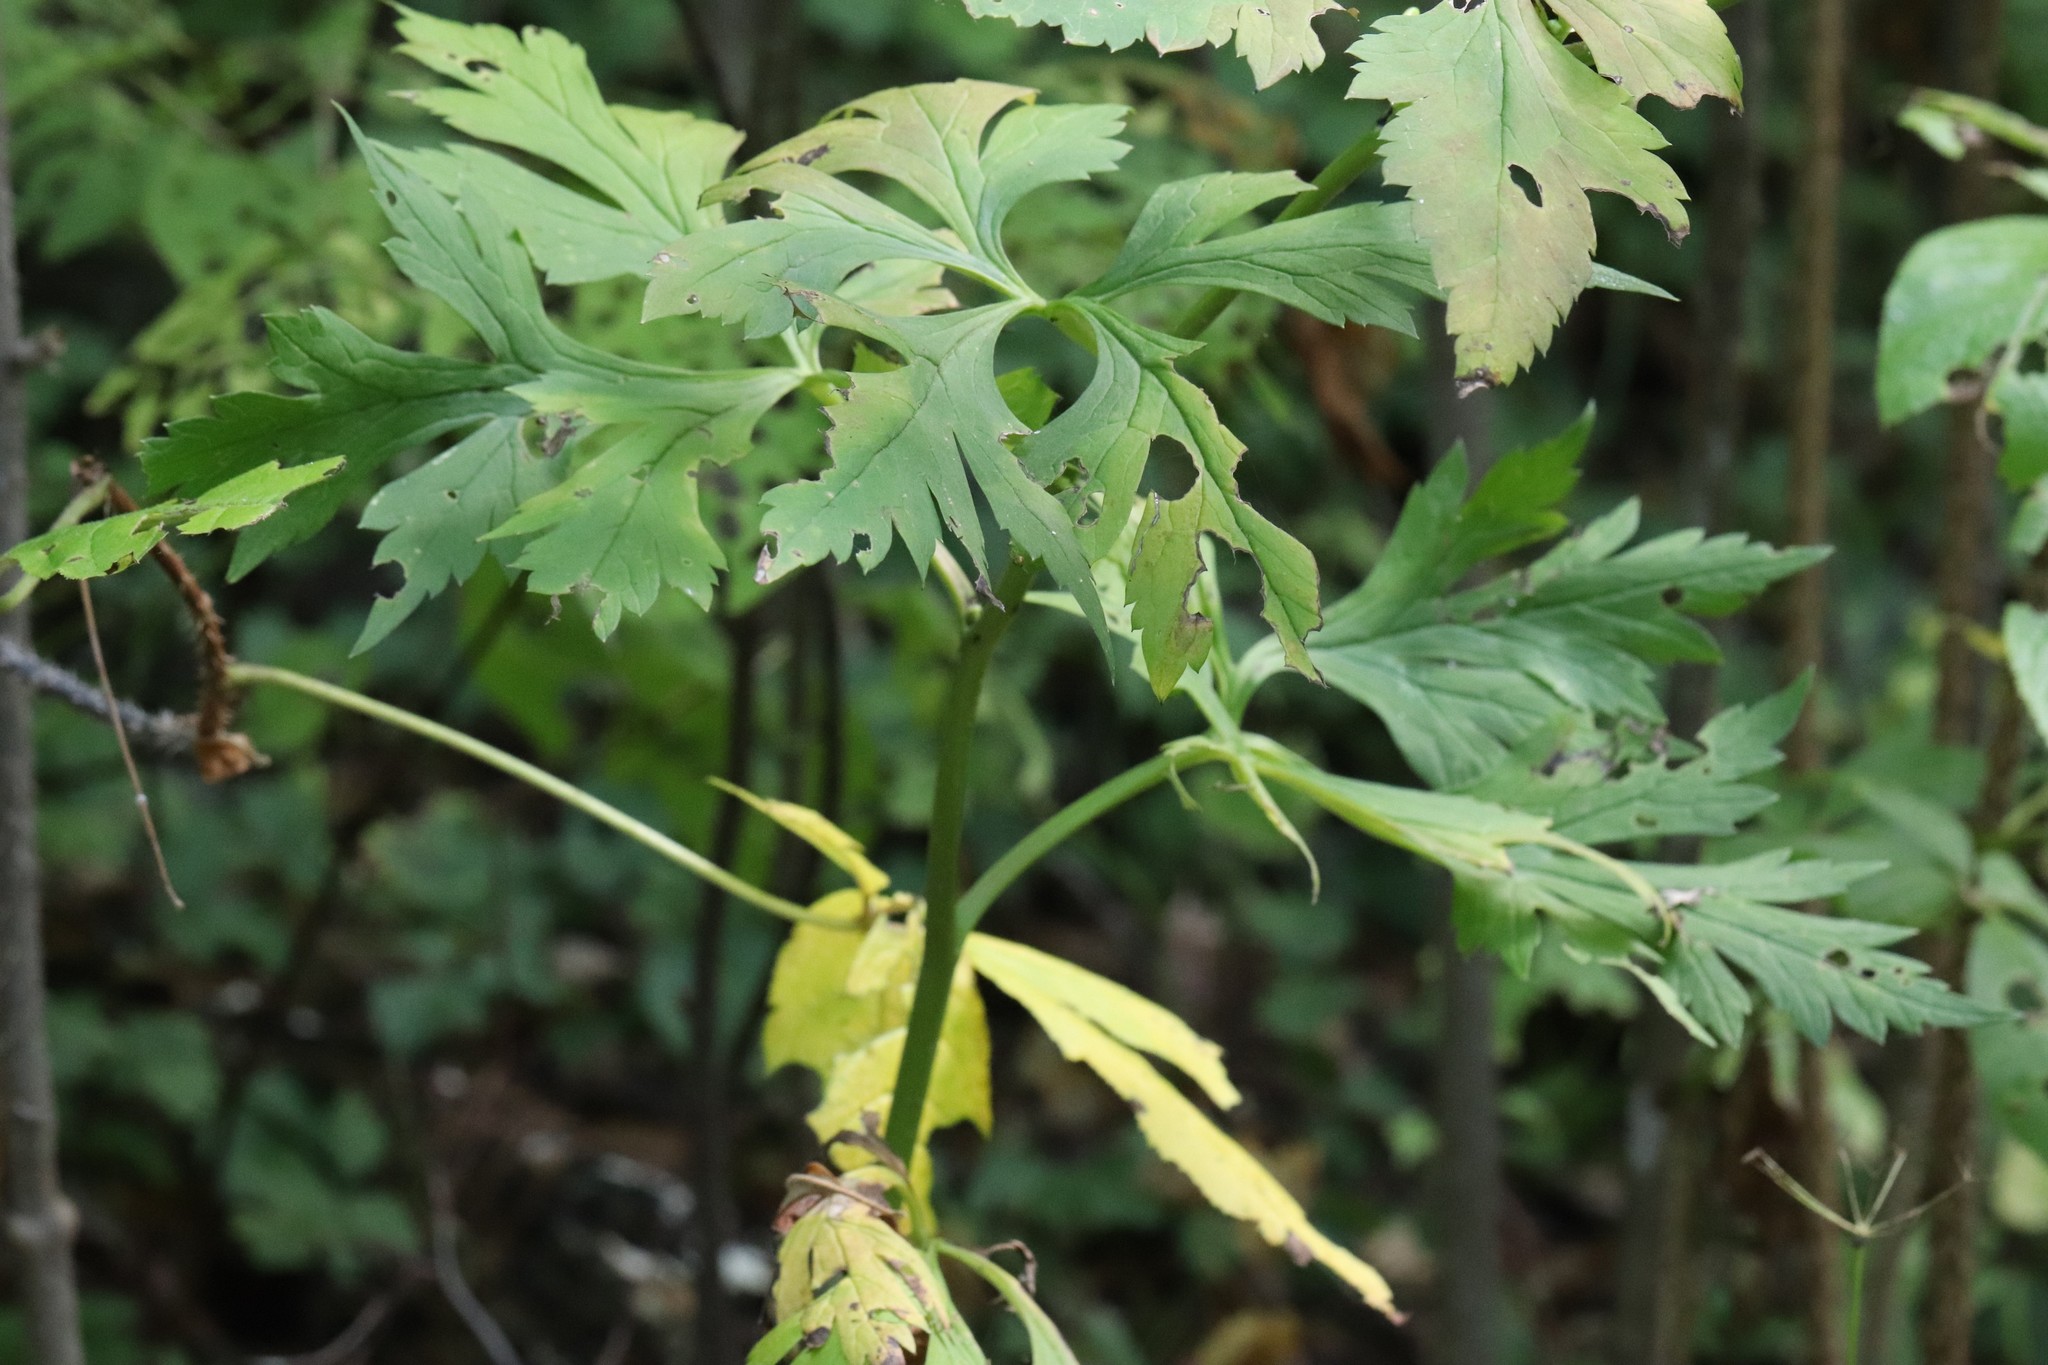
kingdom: Plantae
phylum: Tracheophyta
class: Magnoliopsida
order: Ranunculales
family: Ranunculaceae
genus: Aconitum
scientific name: Aconitum sczukinii
